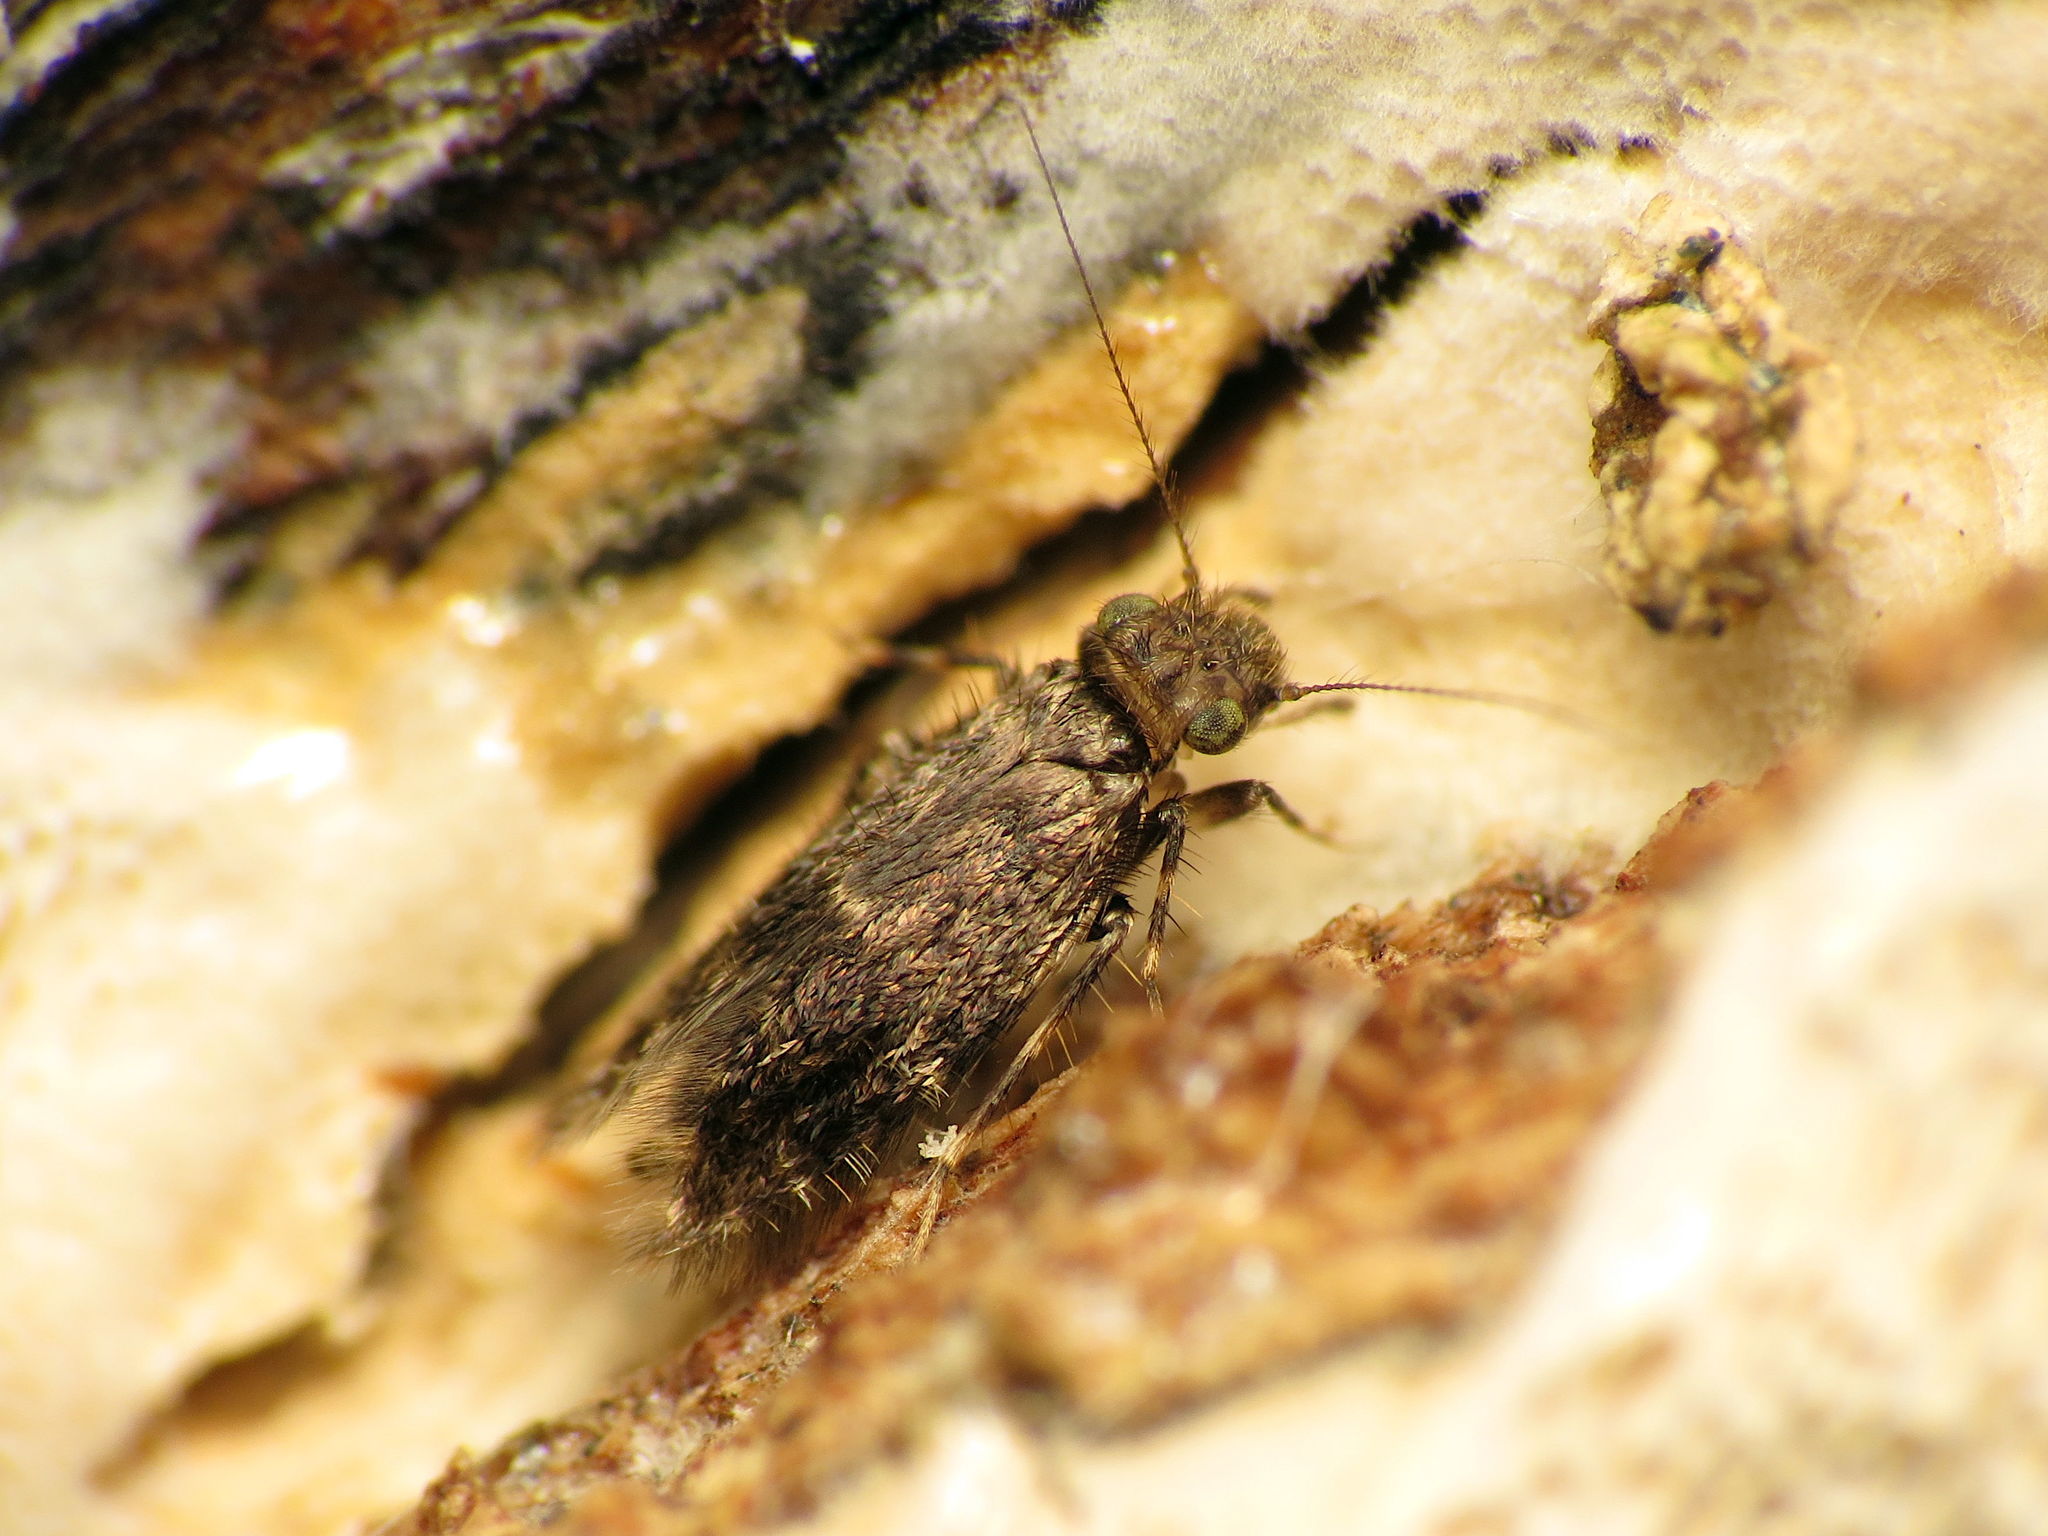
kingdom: Animalia
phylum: Arthropoda
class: Insecta
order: Psocodea
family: Lepidopsocidae
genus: Echmepteryx
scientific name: Echmepteryx hageni
